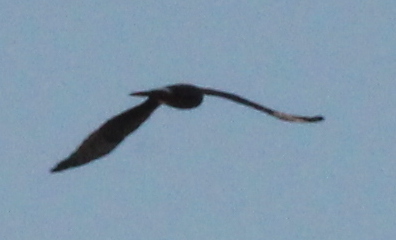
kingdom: Animalia
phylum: Chordata
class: Aves
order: Accipitriformes
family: Accipitridae
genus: Circus
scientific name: Circus cyaneus
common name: Hen harrier
